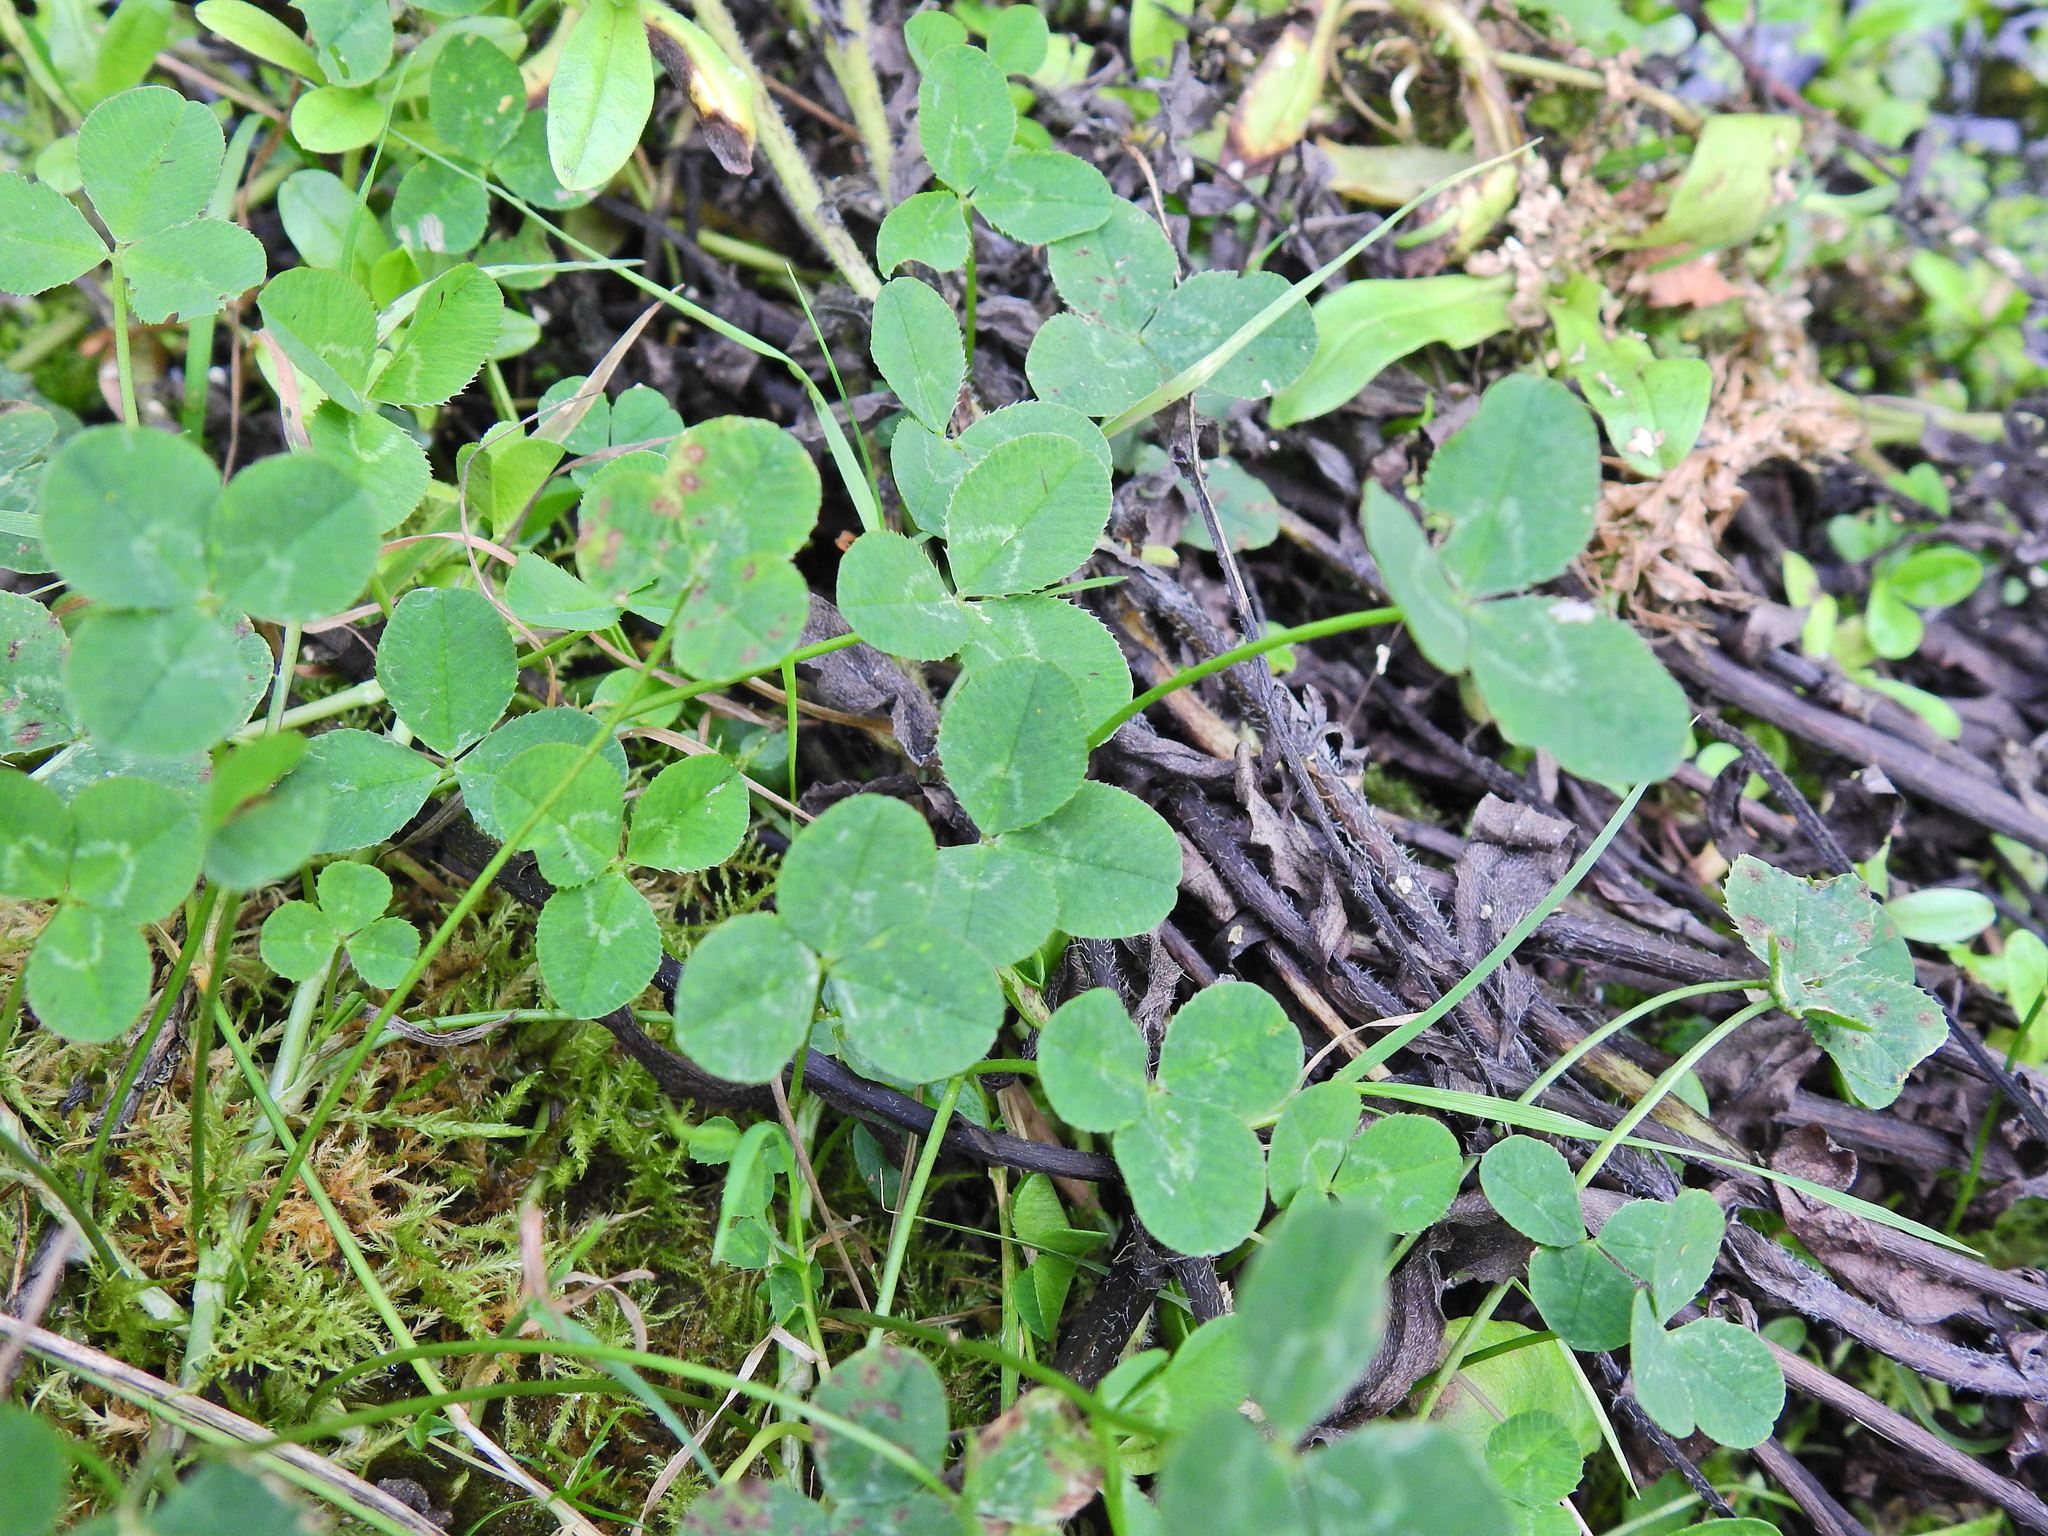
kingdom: Plantae
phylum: Tracheophyta
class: Magnoliopsida
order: Fabales
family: Fabaceae
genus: Trifolium
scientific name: Trifolium repens
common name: White clover
